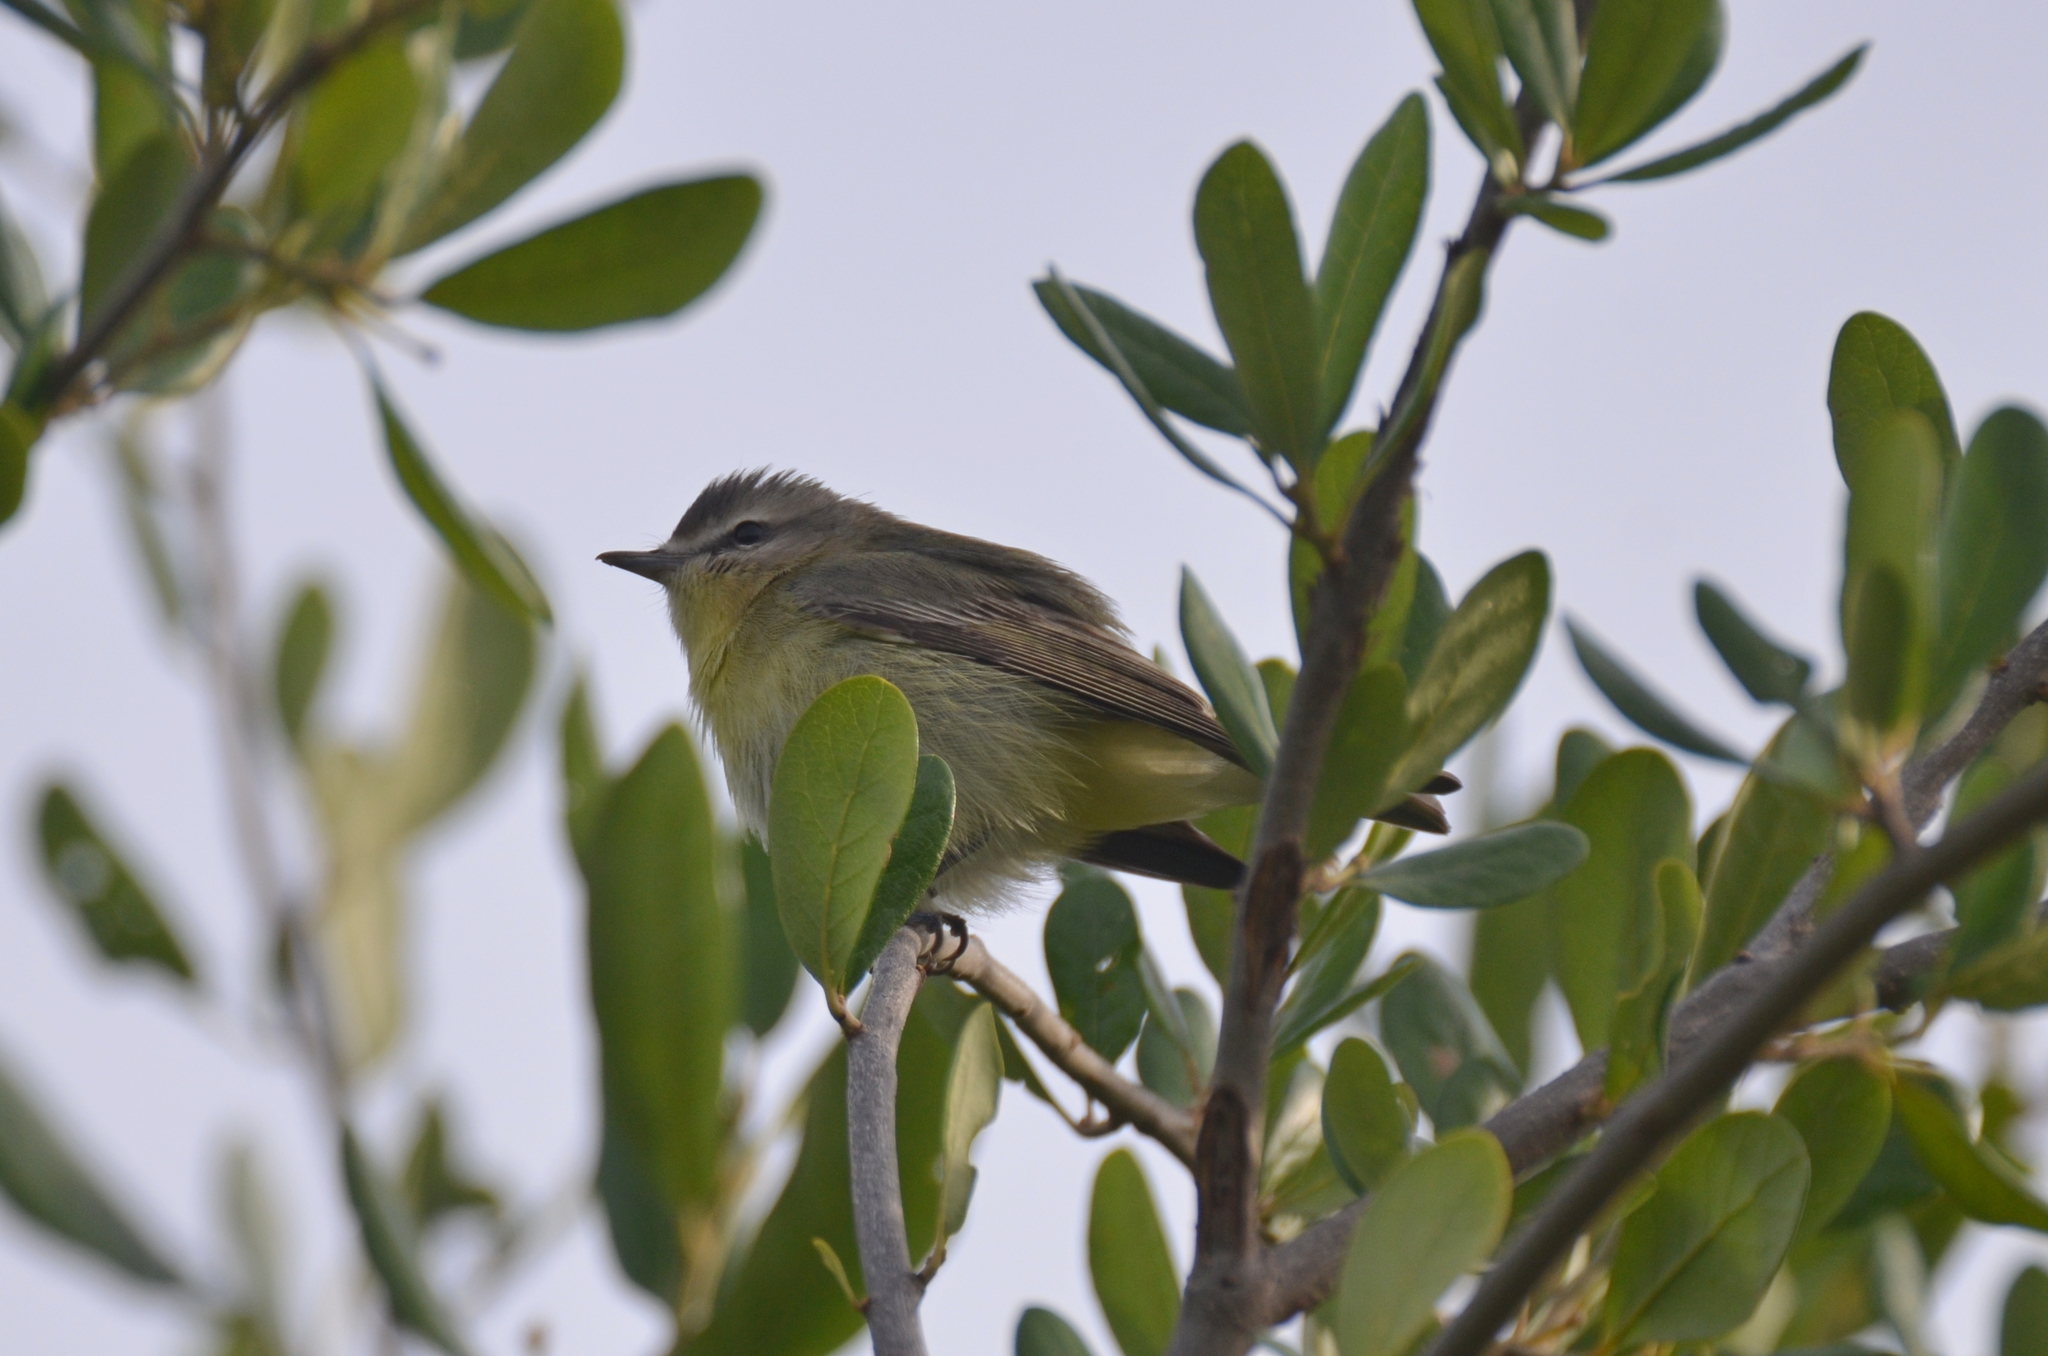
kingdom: Animalia
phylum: Chordata
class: Aves
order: Passeriformes
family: Vireonidae
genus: Vireo
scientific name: Vireo philadelphicus
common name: Philadelphia vireo
